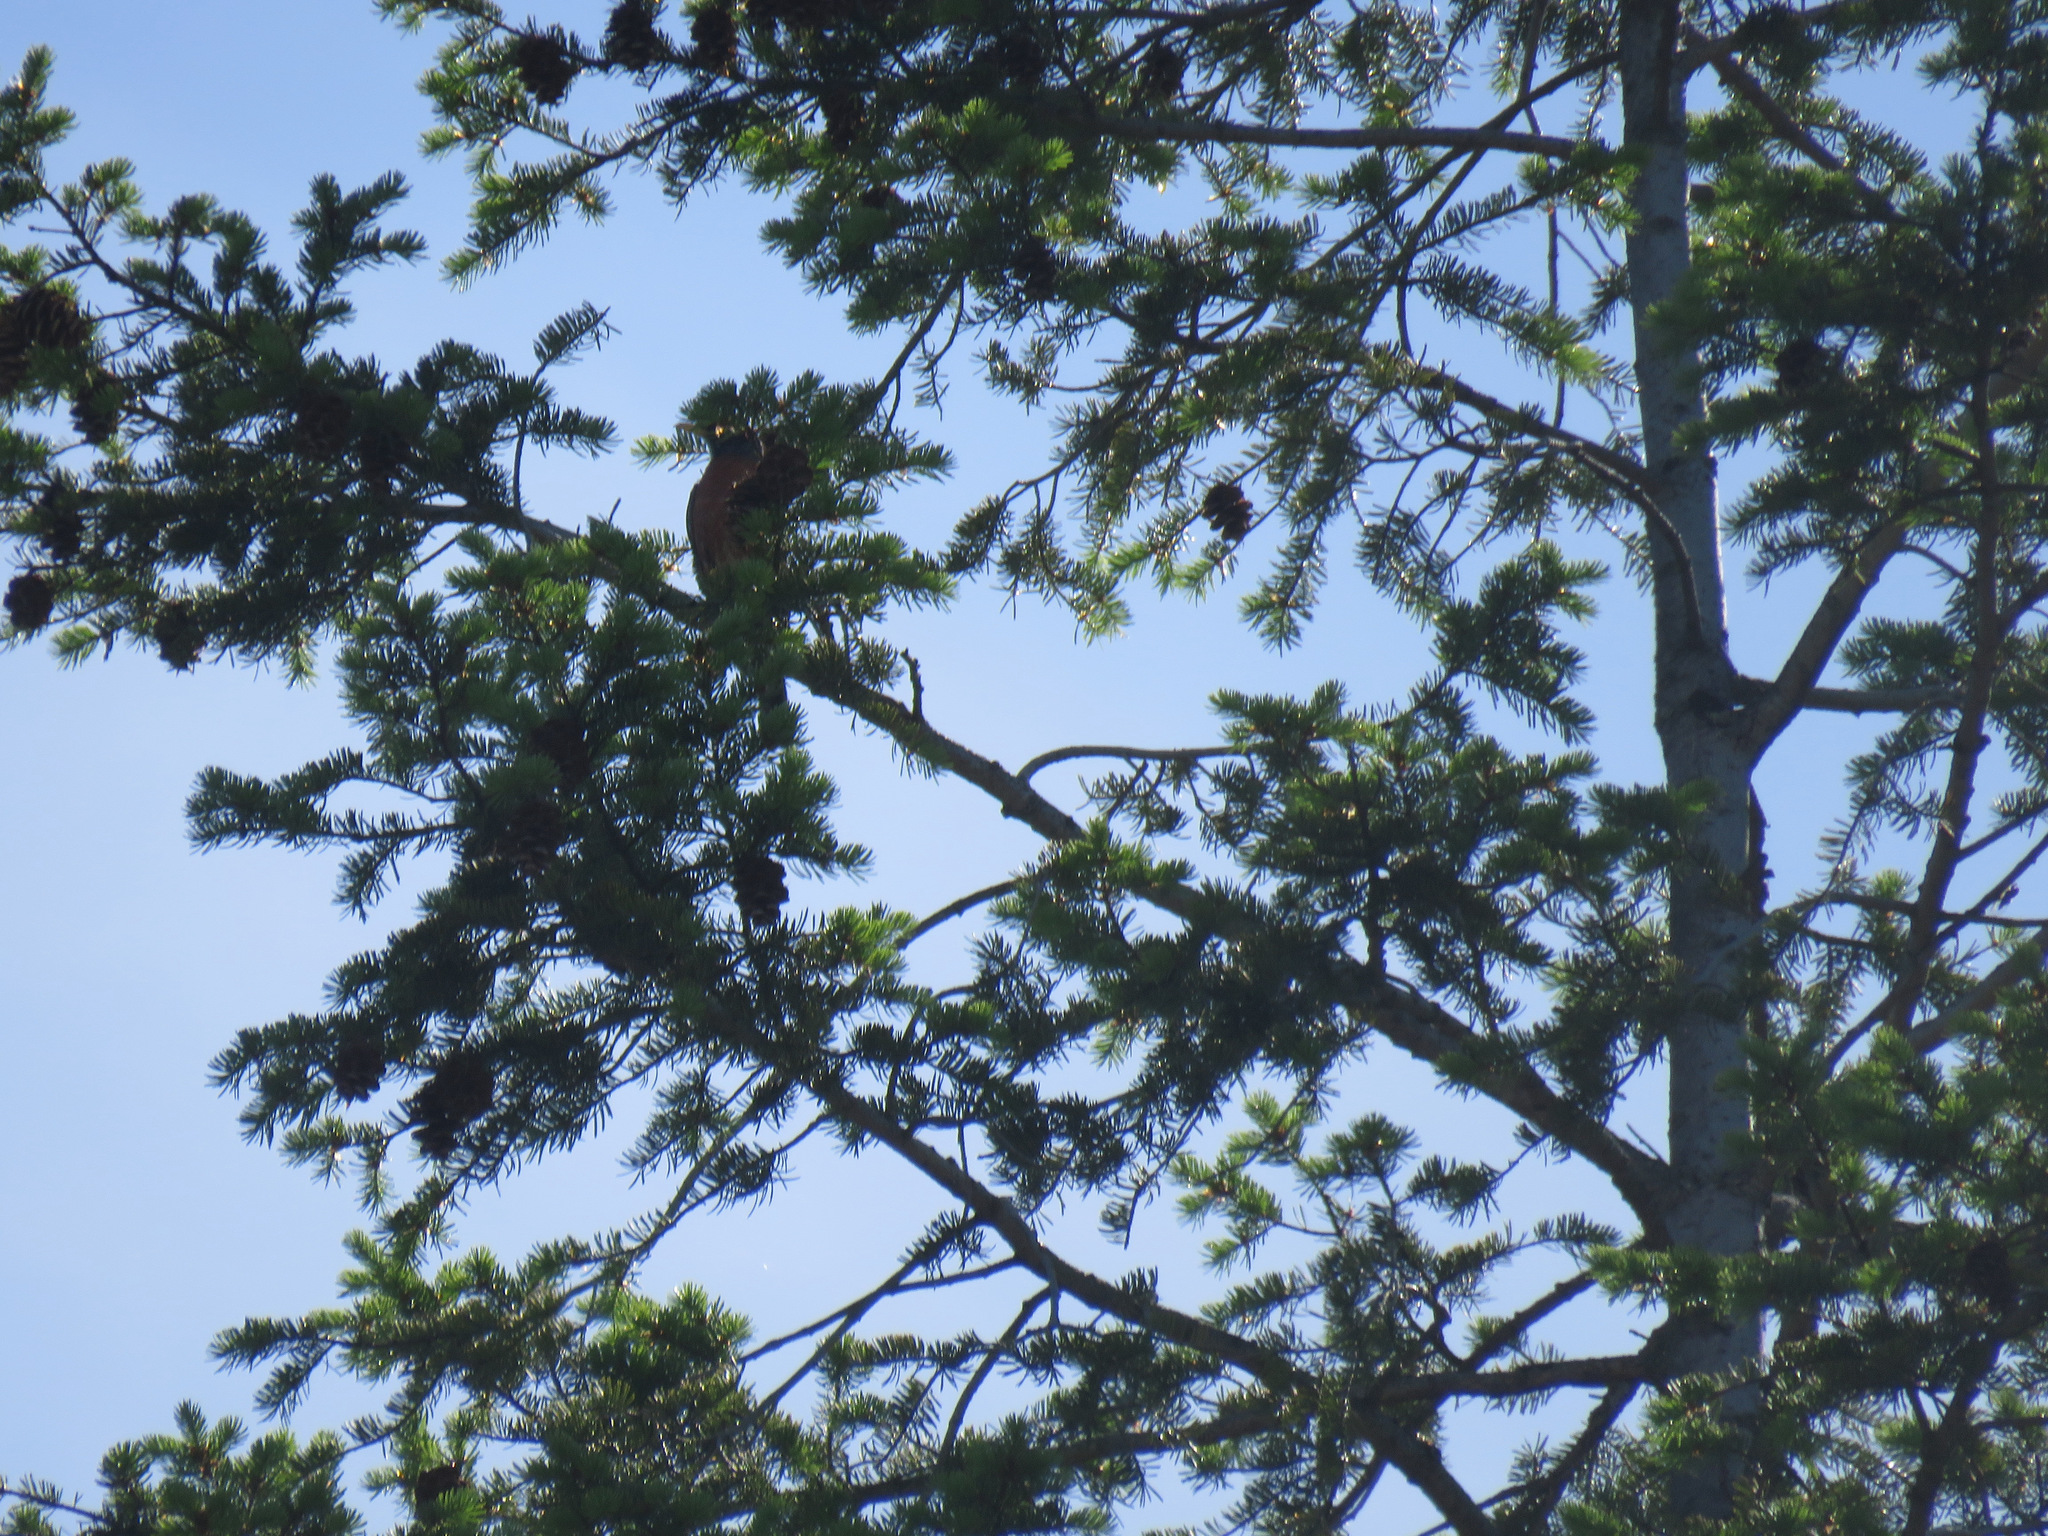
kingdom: Animalia
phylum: Chordata
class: Aves
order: Passeriformes
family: Turdidae
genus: Turdus
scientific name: Turdus migratorius
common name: American robin
